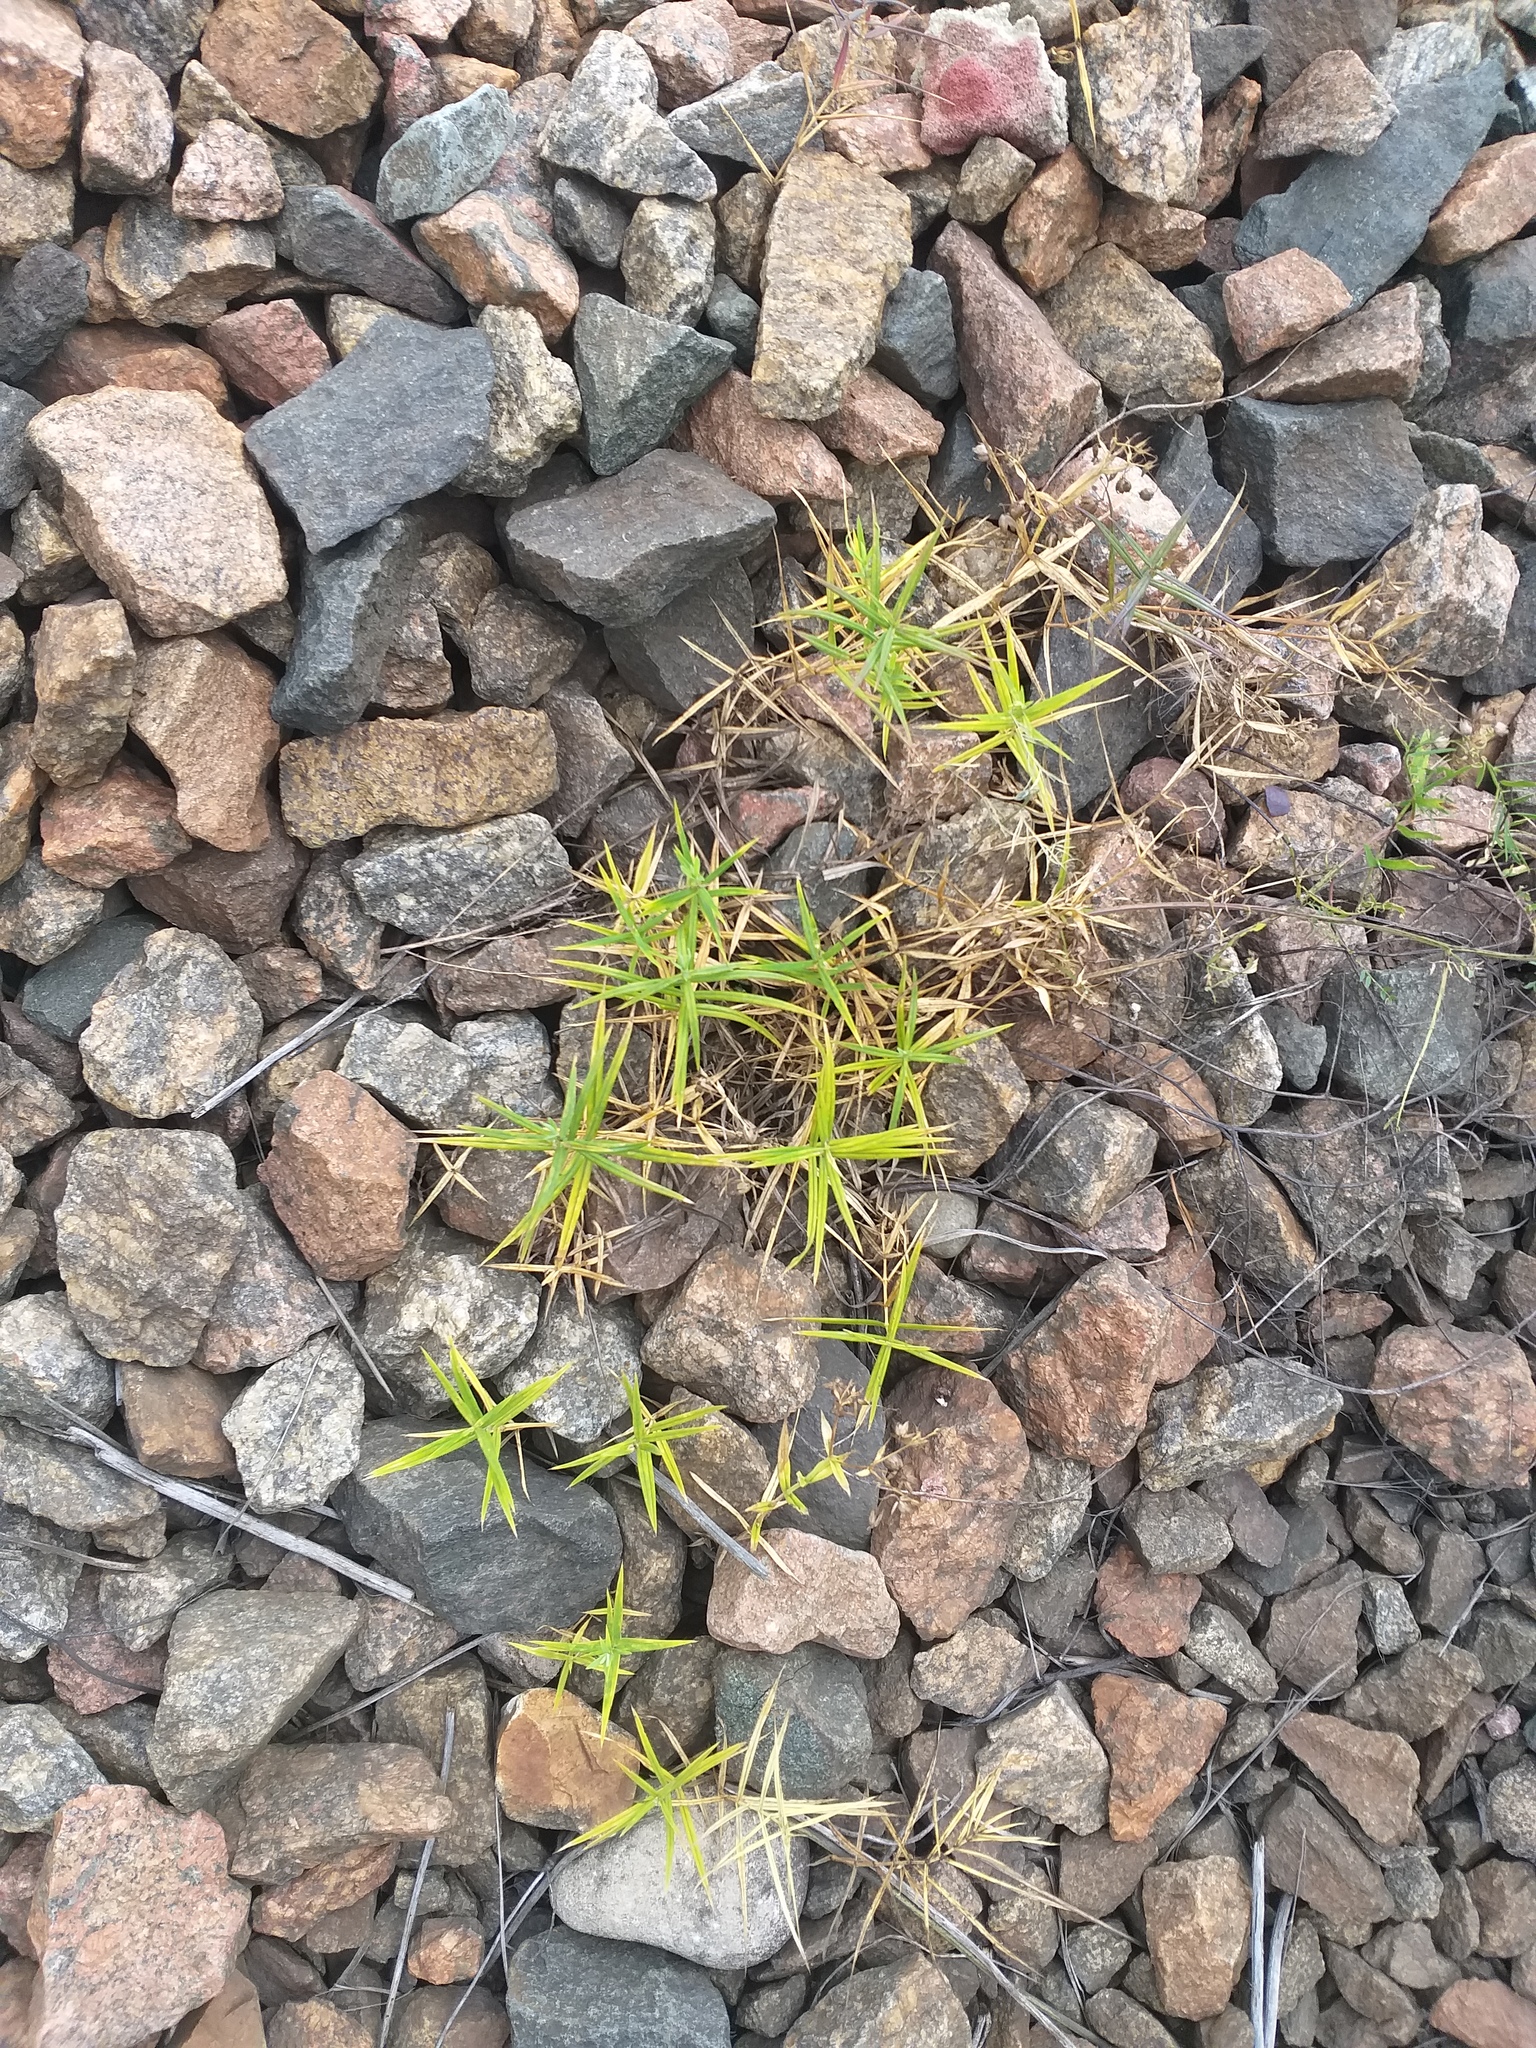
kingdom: Plantae
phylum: Tracheophyta
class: Magnoliopsida
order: Caryophyllales
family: Caryophyllaceae
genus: Rabelera
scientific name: Rabelera holostea
